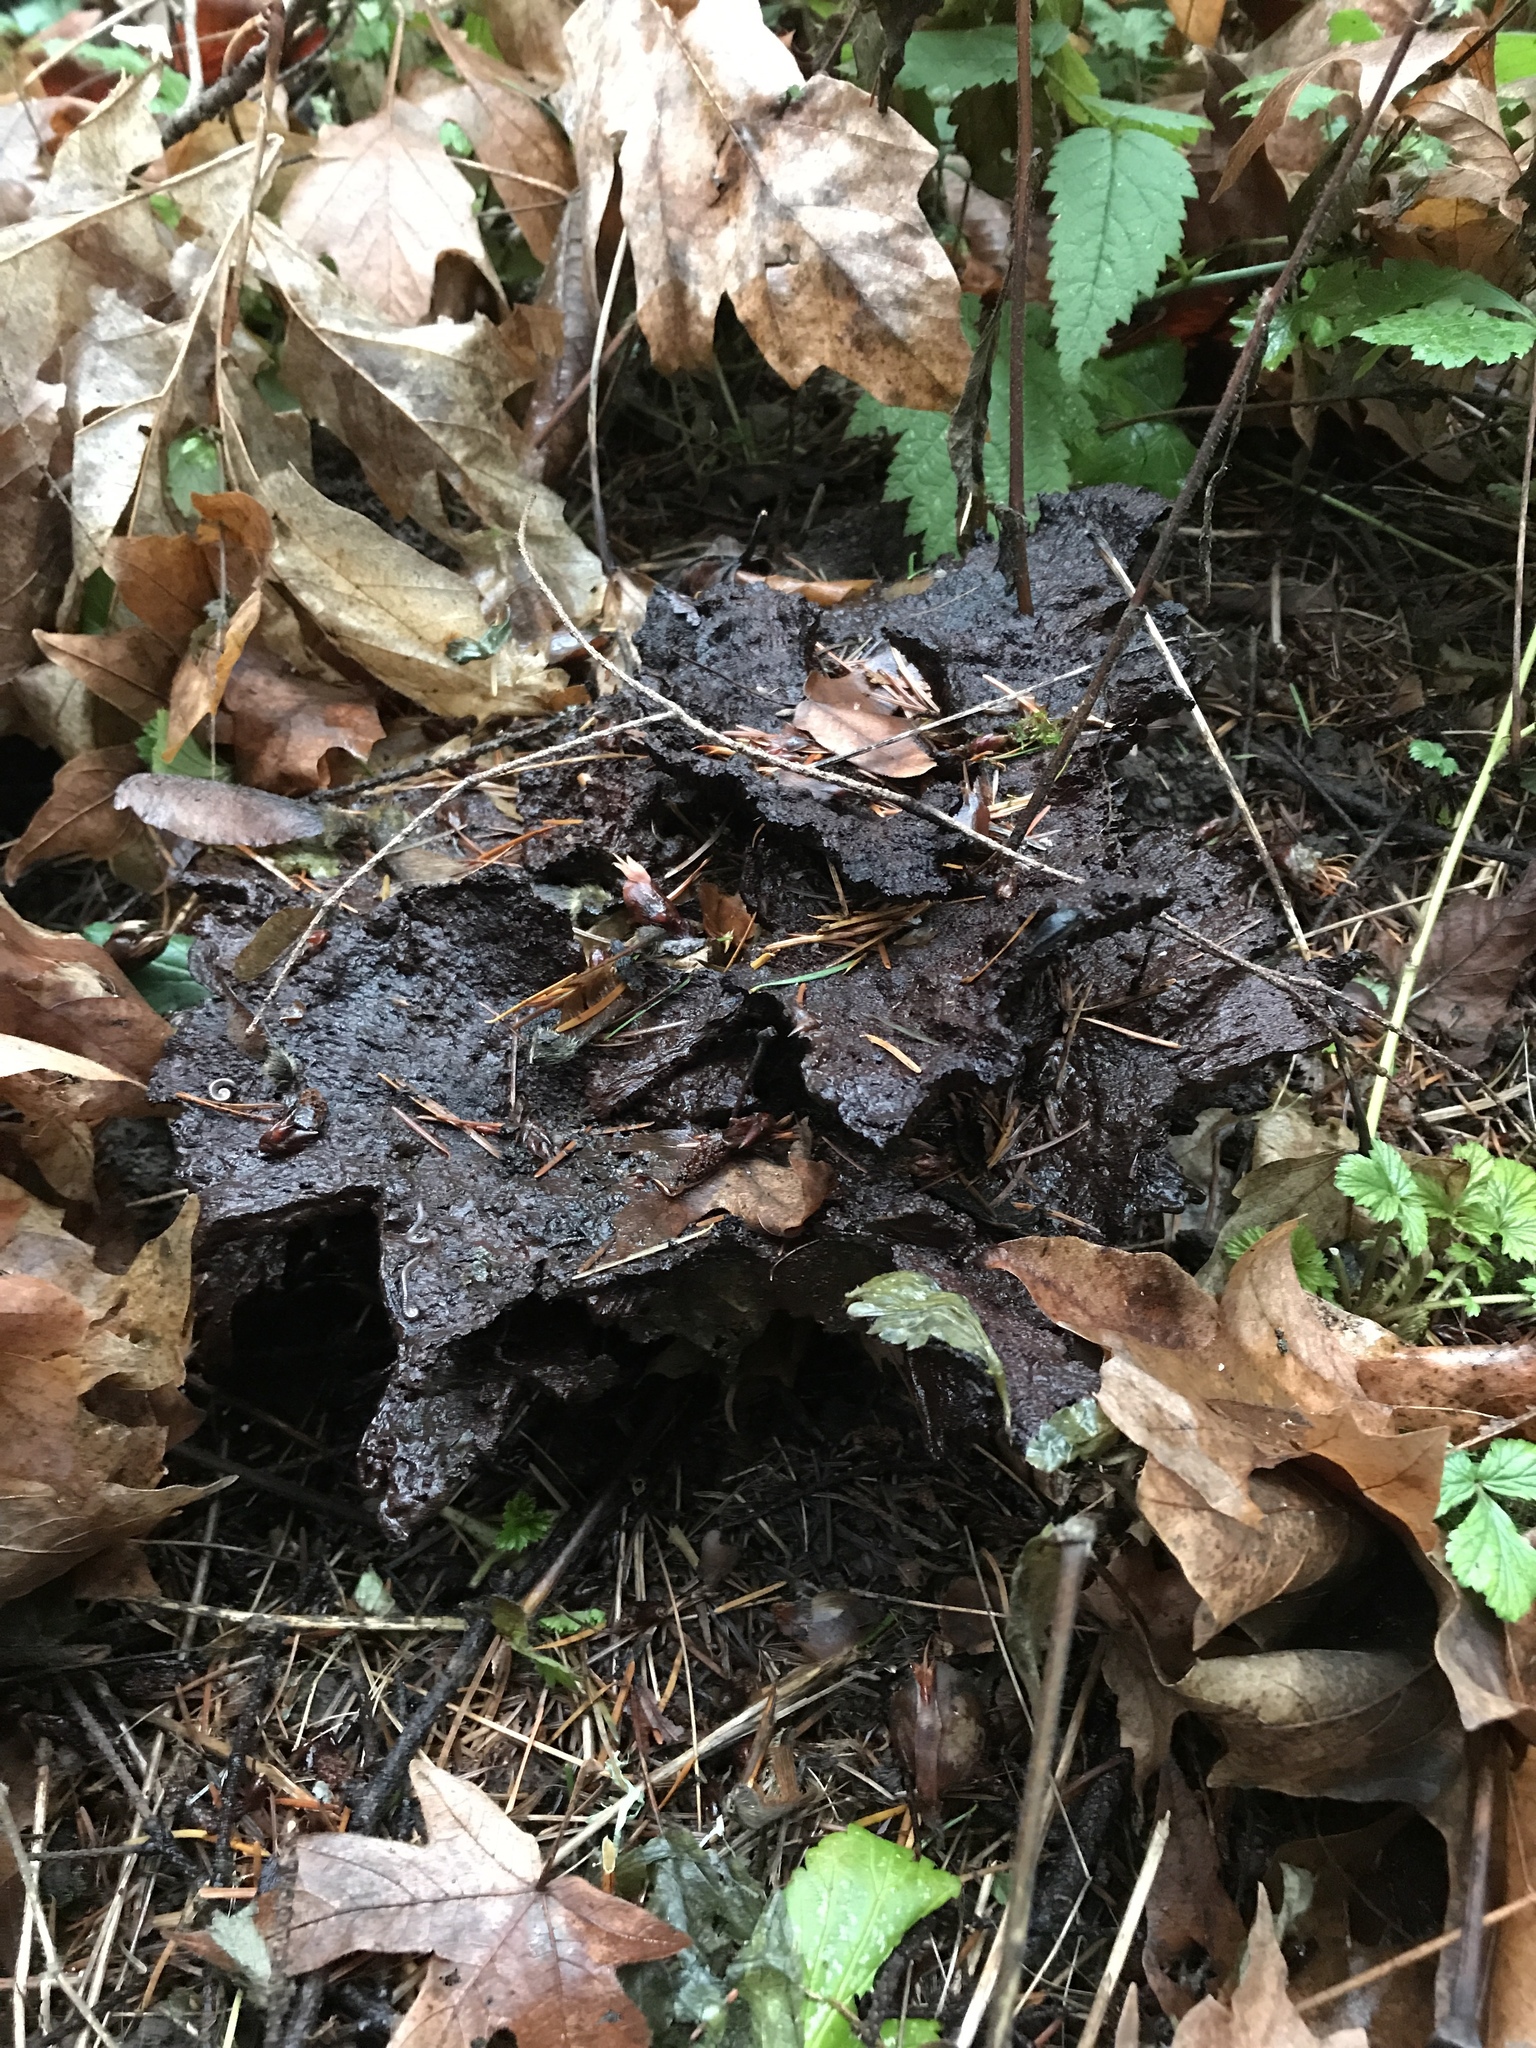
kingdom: Fungi
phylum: Basidiomycota
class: Agaricomycetes
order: Polyporales
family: Laetiporaceae
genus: Phaeolus
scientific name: Phaeolus schweinitzii
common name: Dyer's mazegill
